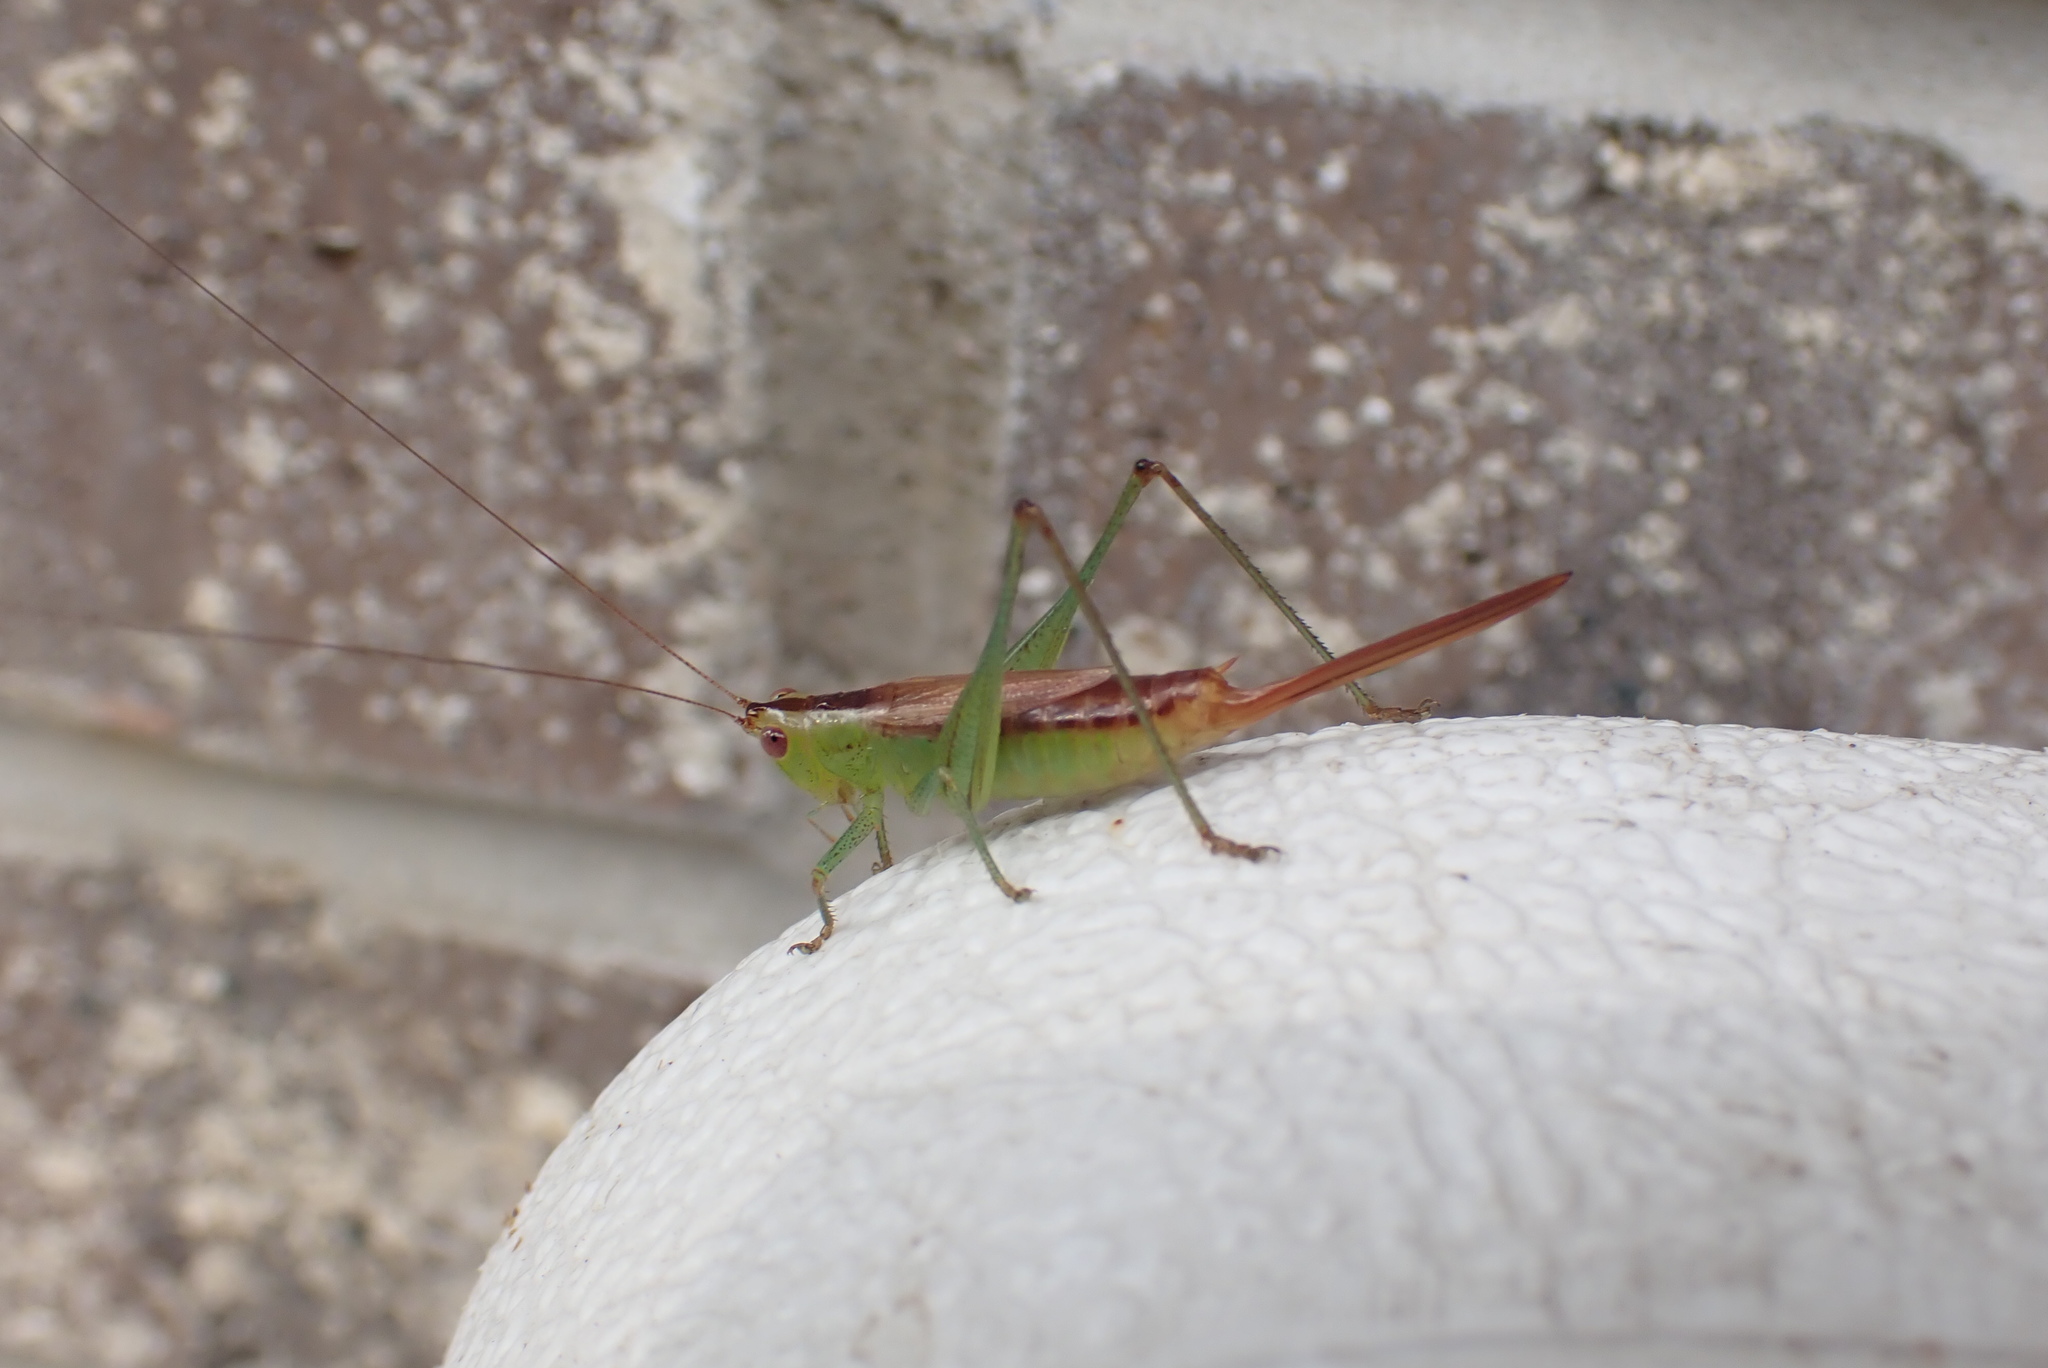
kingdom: Animalia
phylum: Arthropoda
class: Insecta
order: Orthoptera
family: Tettigoniidae
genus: Conocephalus
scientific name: Conocephalus brevipennis
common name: Short-winged meadow katydid
